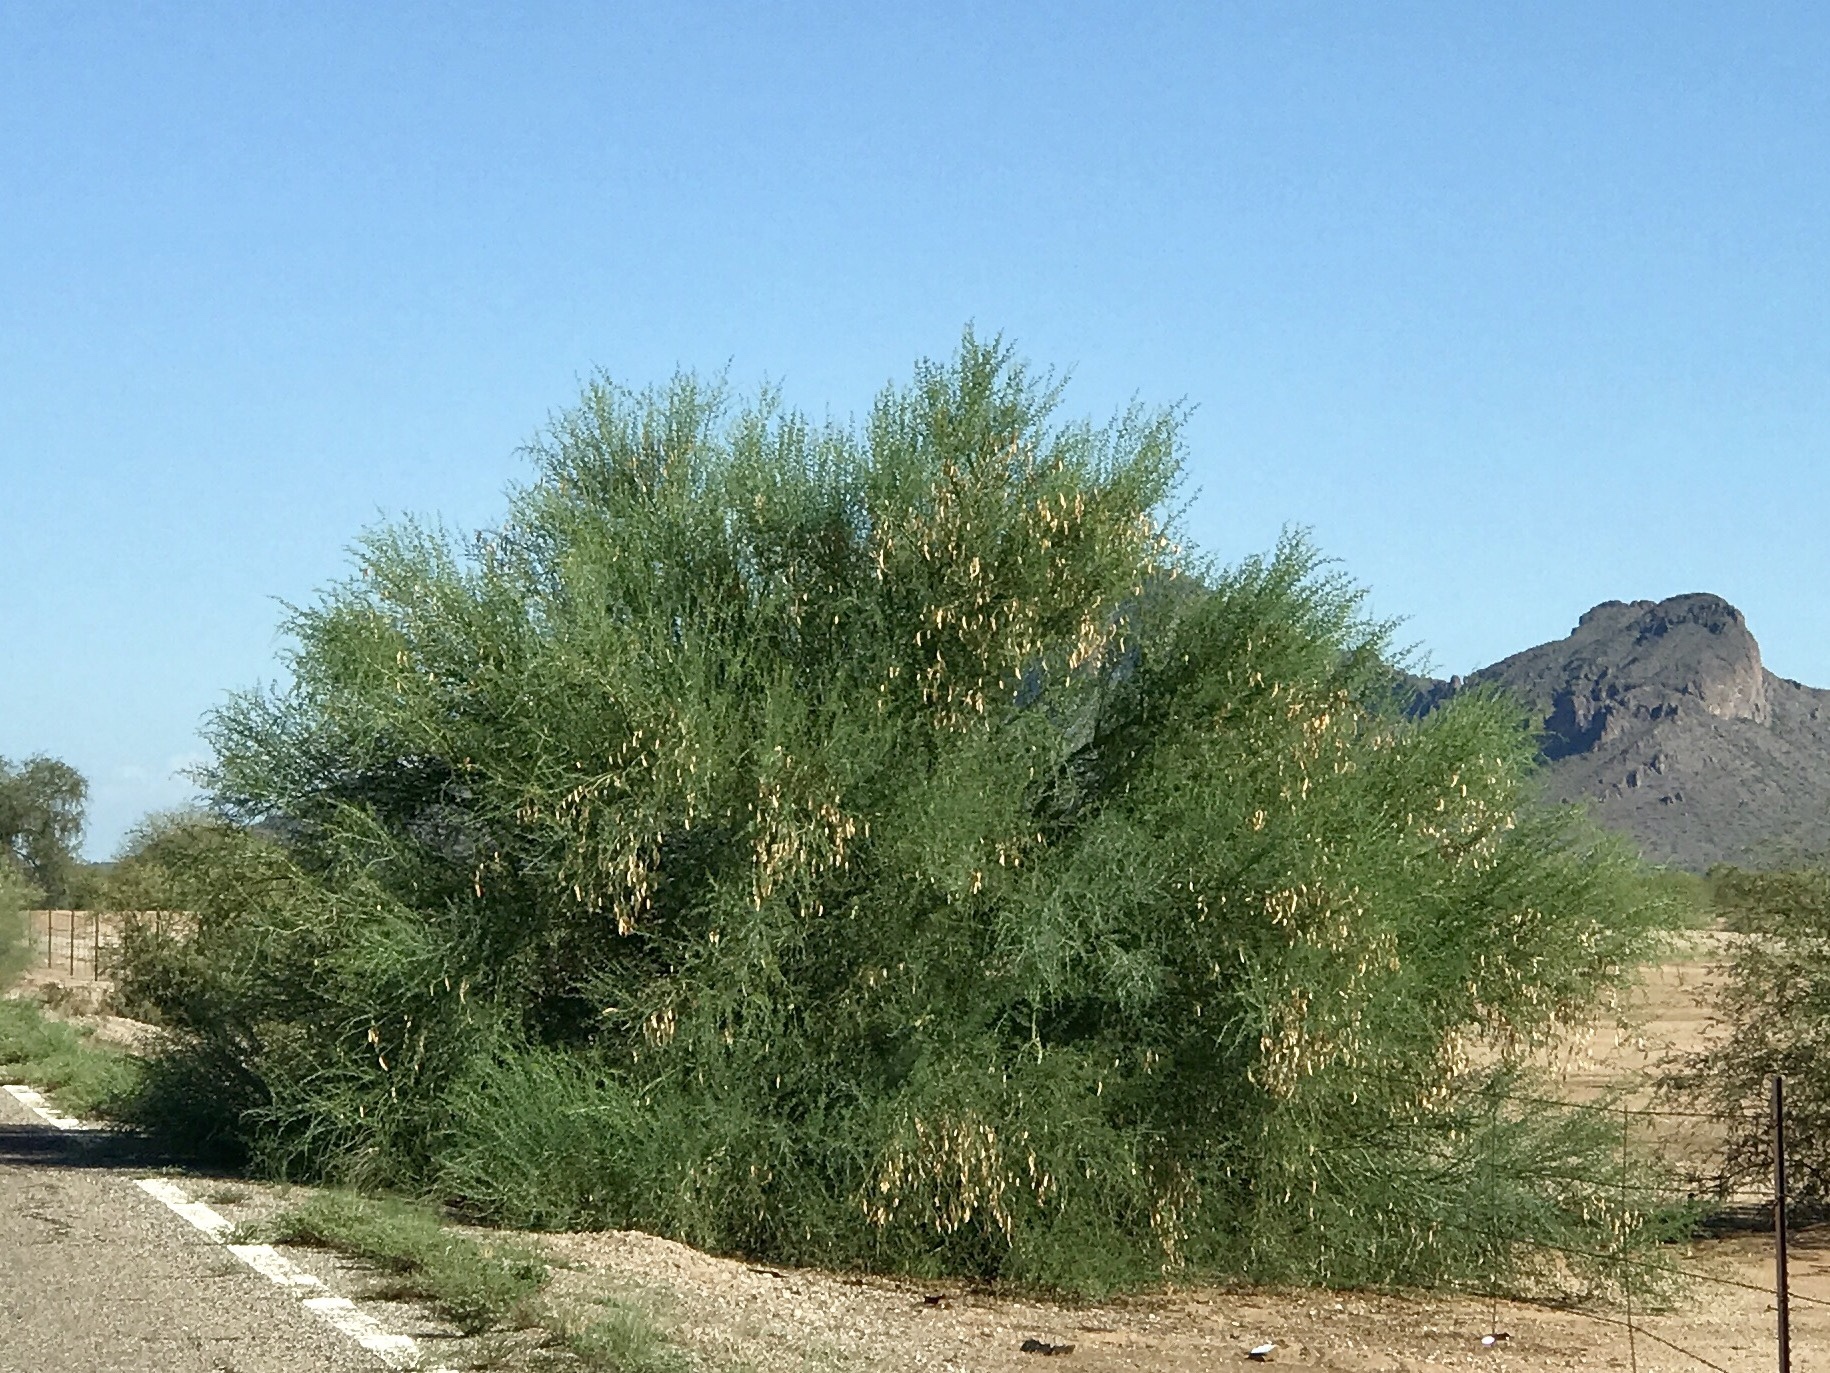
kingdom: Plantae
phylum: Tracheophyta
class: Magnoliopsida
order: Fabales
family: Fabaceae
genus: Parkinsonia
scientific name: Parkinsonia florida
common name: Blue paloverde
